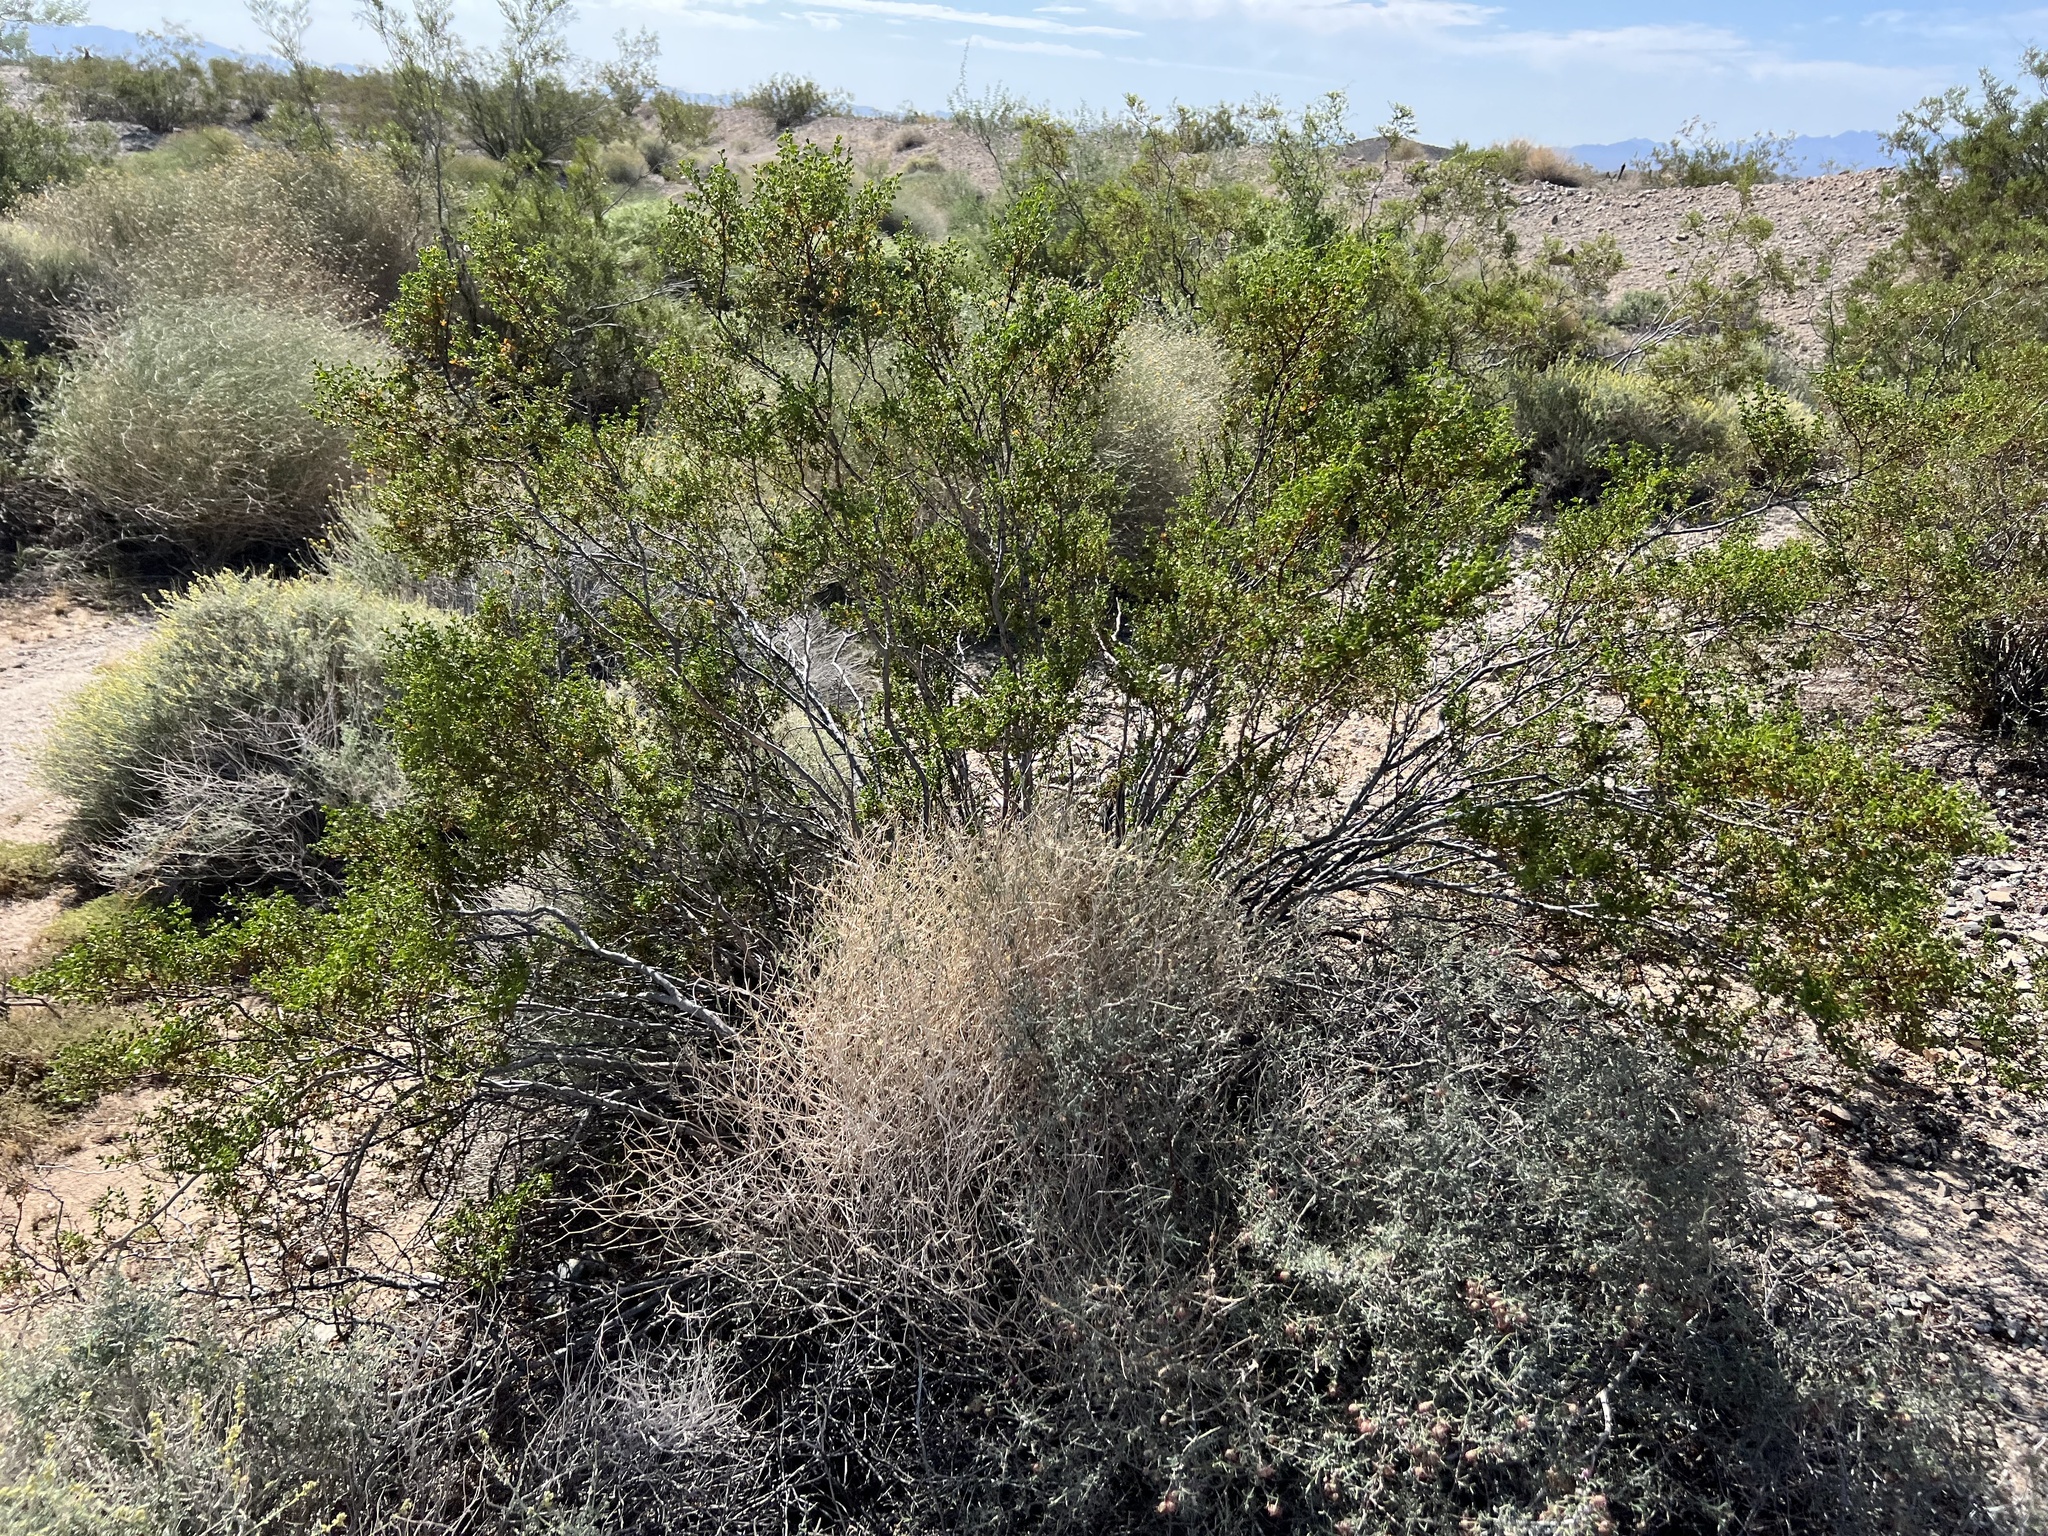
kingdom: Plantae
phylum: Tracheophyta
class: Magnoliopsida
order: Zygophyllales
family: Zygophyllaceae
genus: Larrea
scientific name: Larrea tridentata
